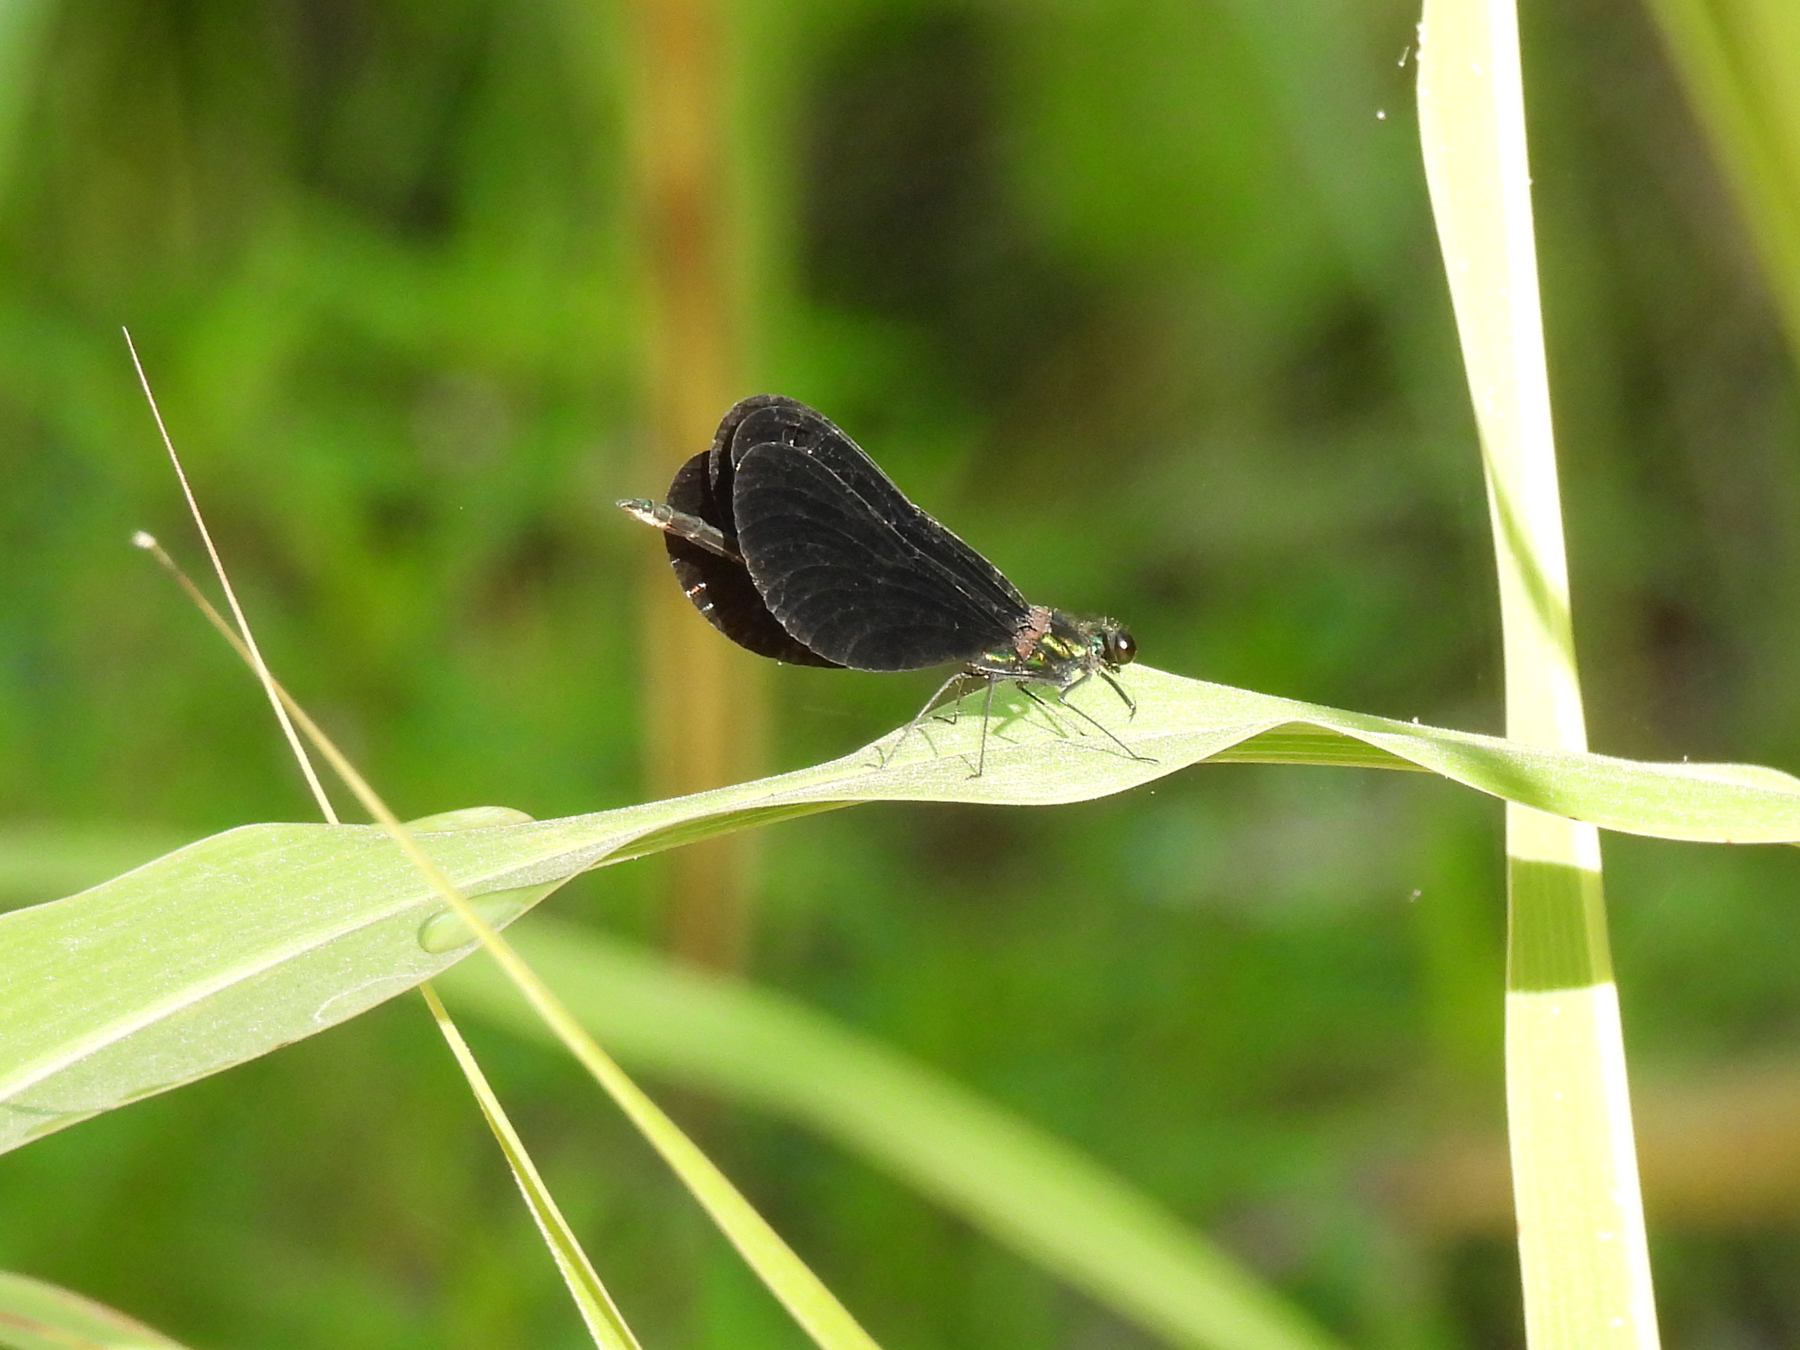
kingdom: Animalia
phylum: Arthropoda
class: Insecta
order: Odonata
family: Calopterygidae
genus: Calopteryx
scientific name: Calopteryx maculata
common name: Ebony jewelwing
